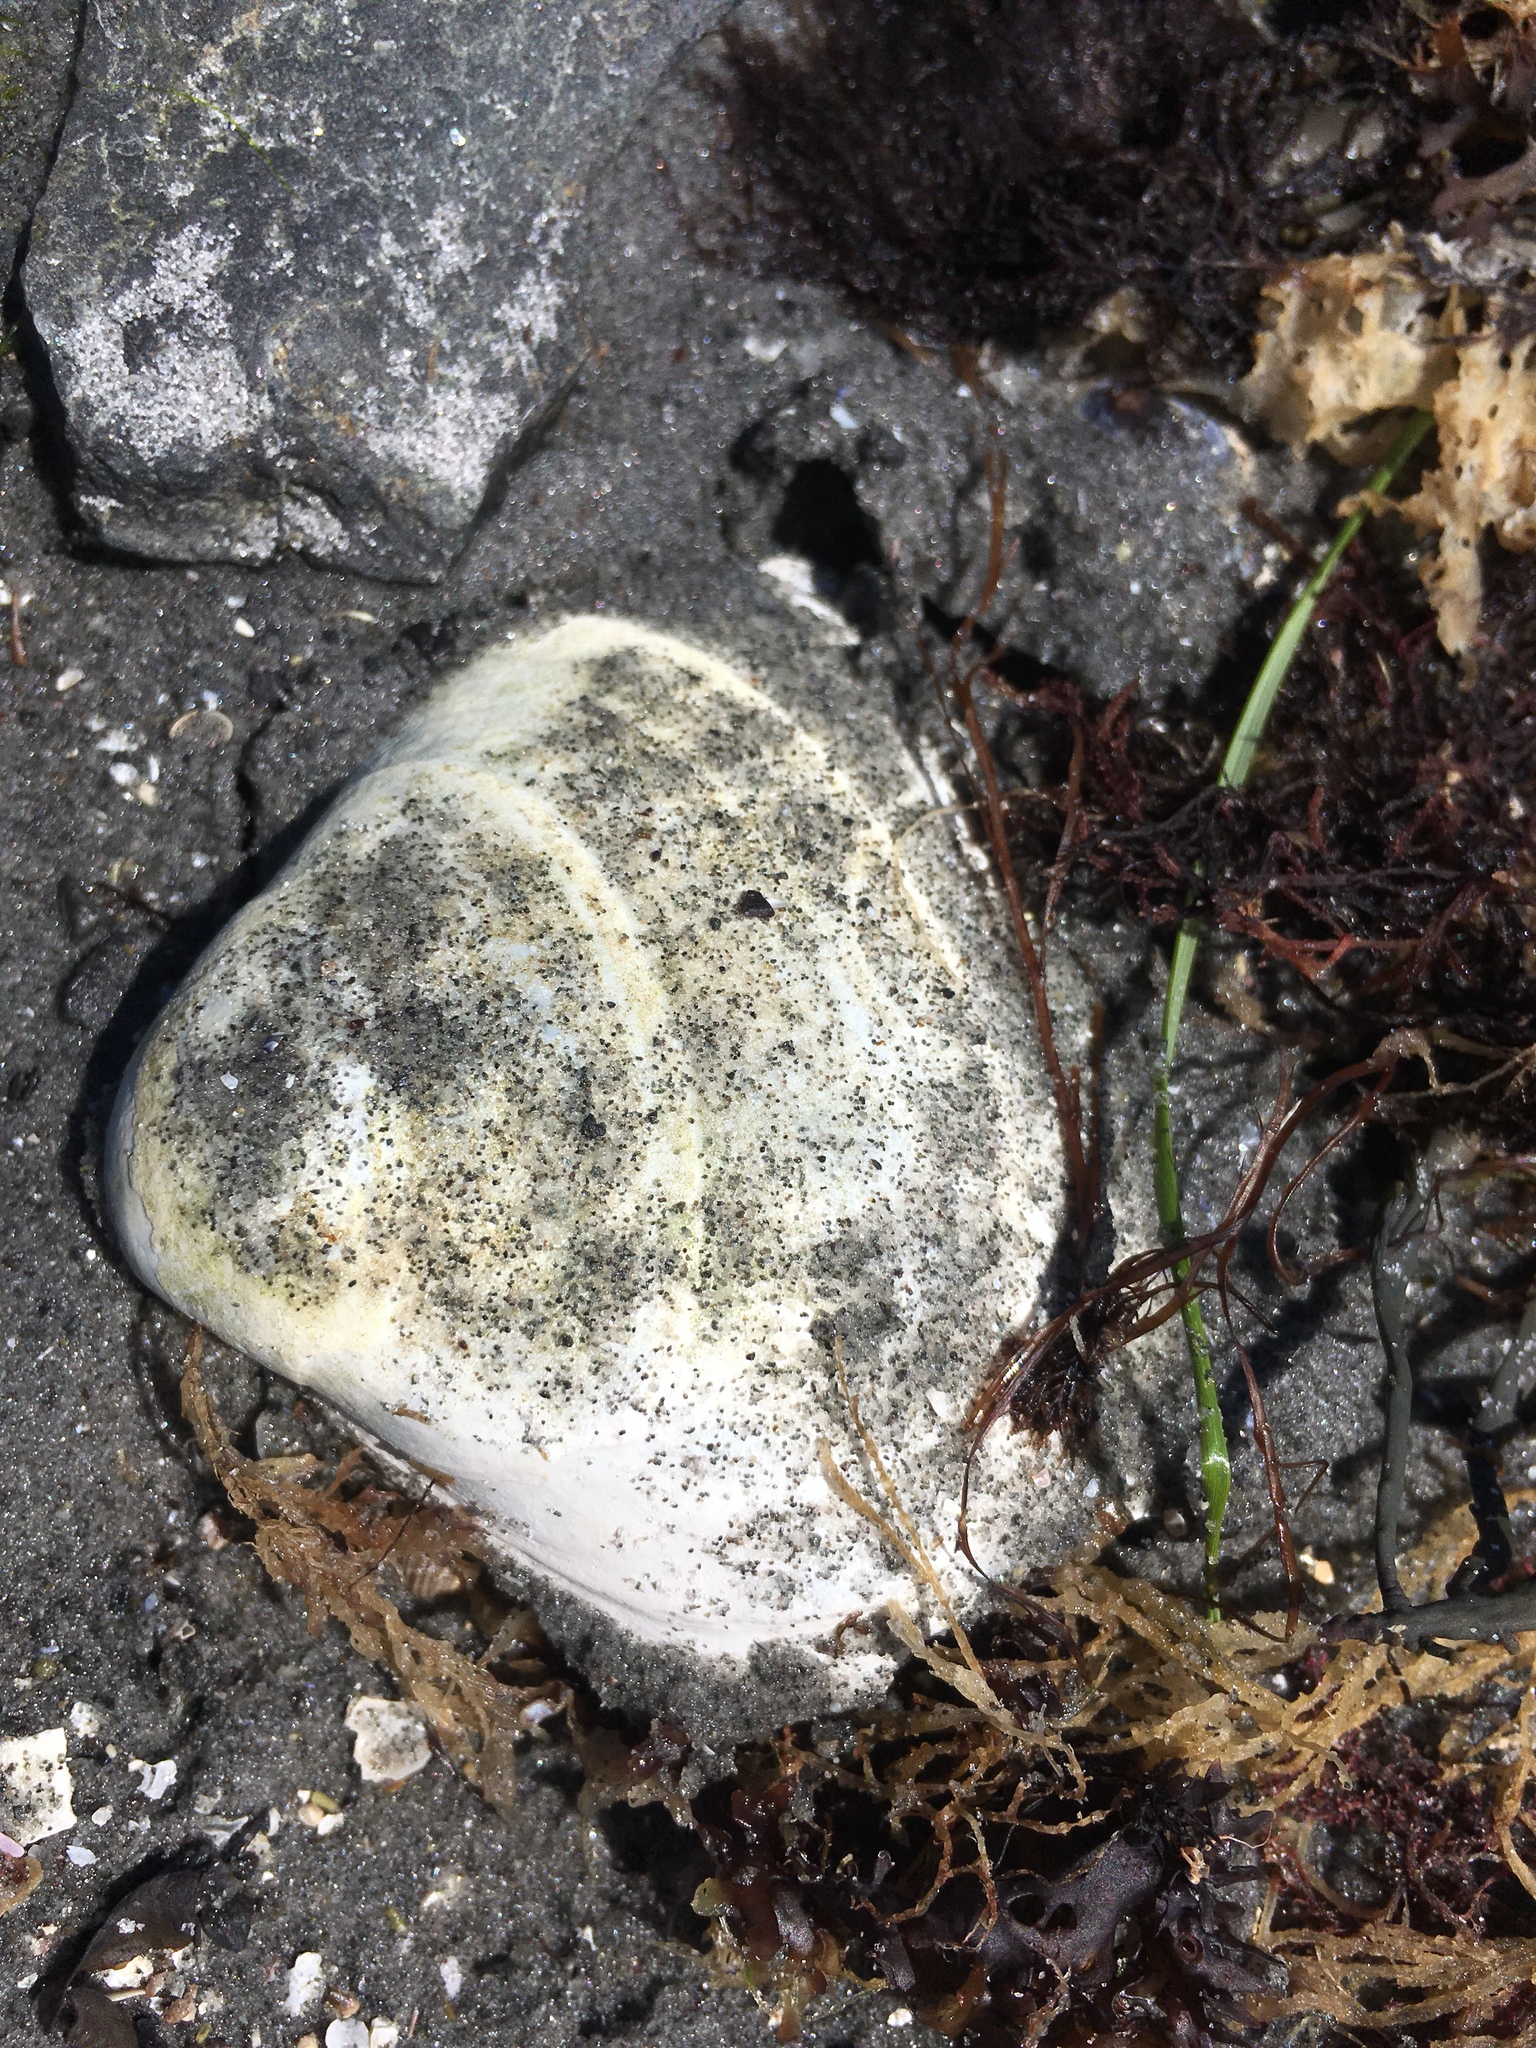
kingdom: Animalia
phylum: Mollusca
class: Bivalvia
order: Venerida
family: Mactridae
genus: Spisula
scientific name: Spisula solidissima
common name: Atlantic surf clam
